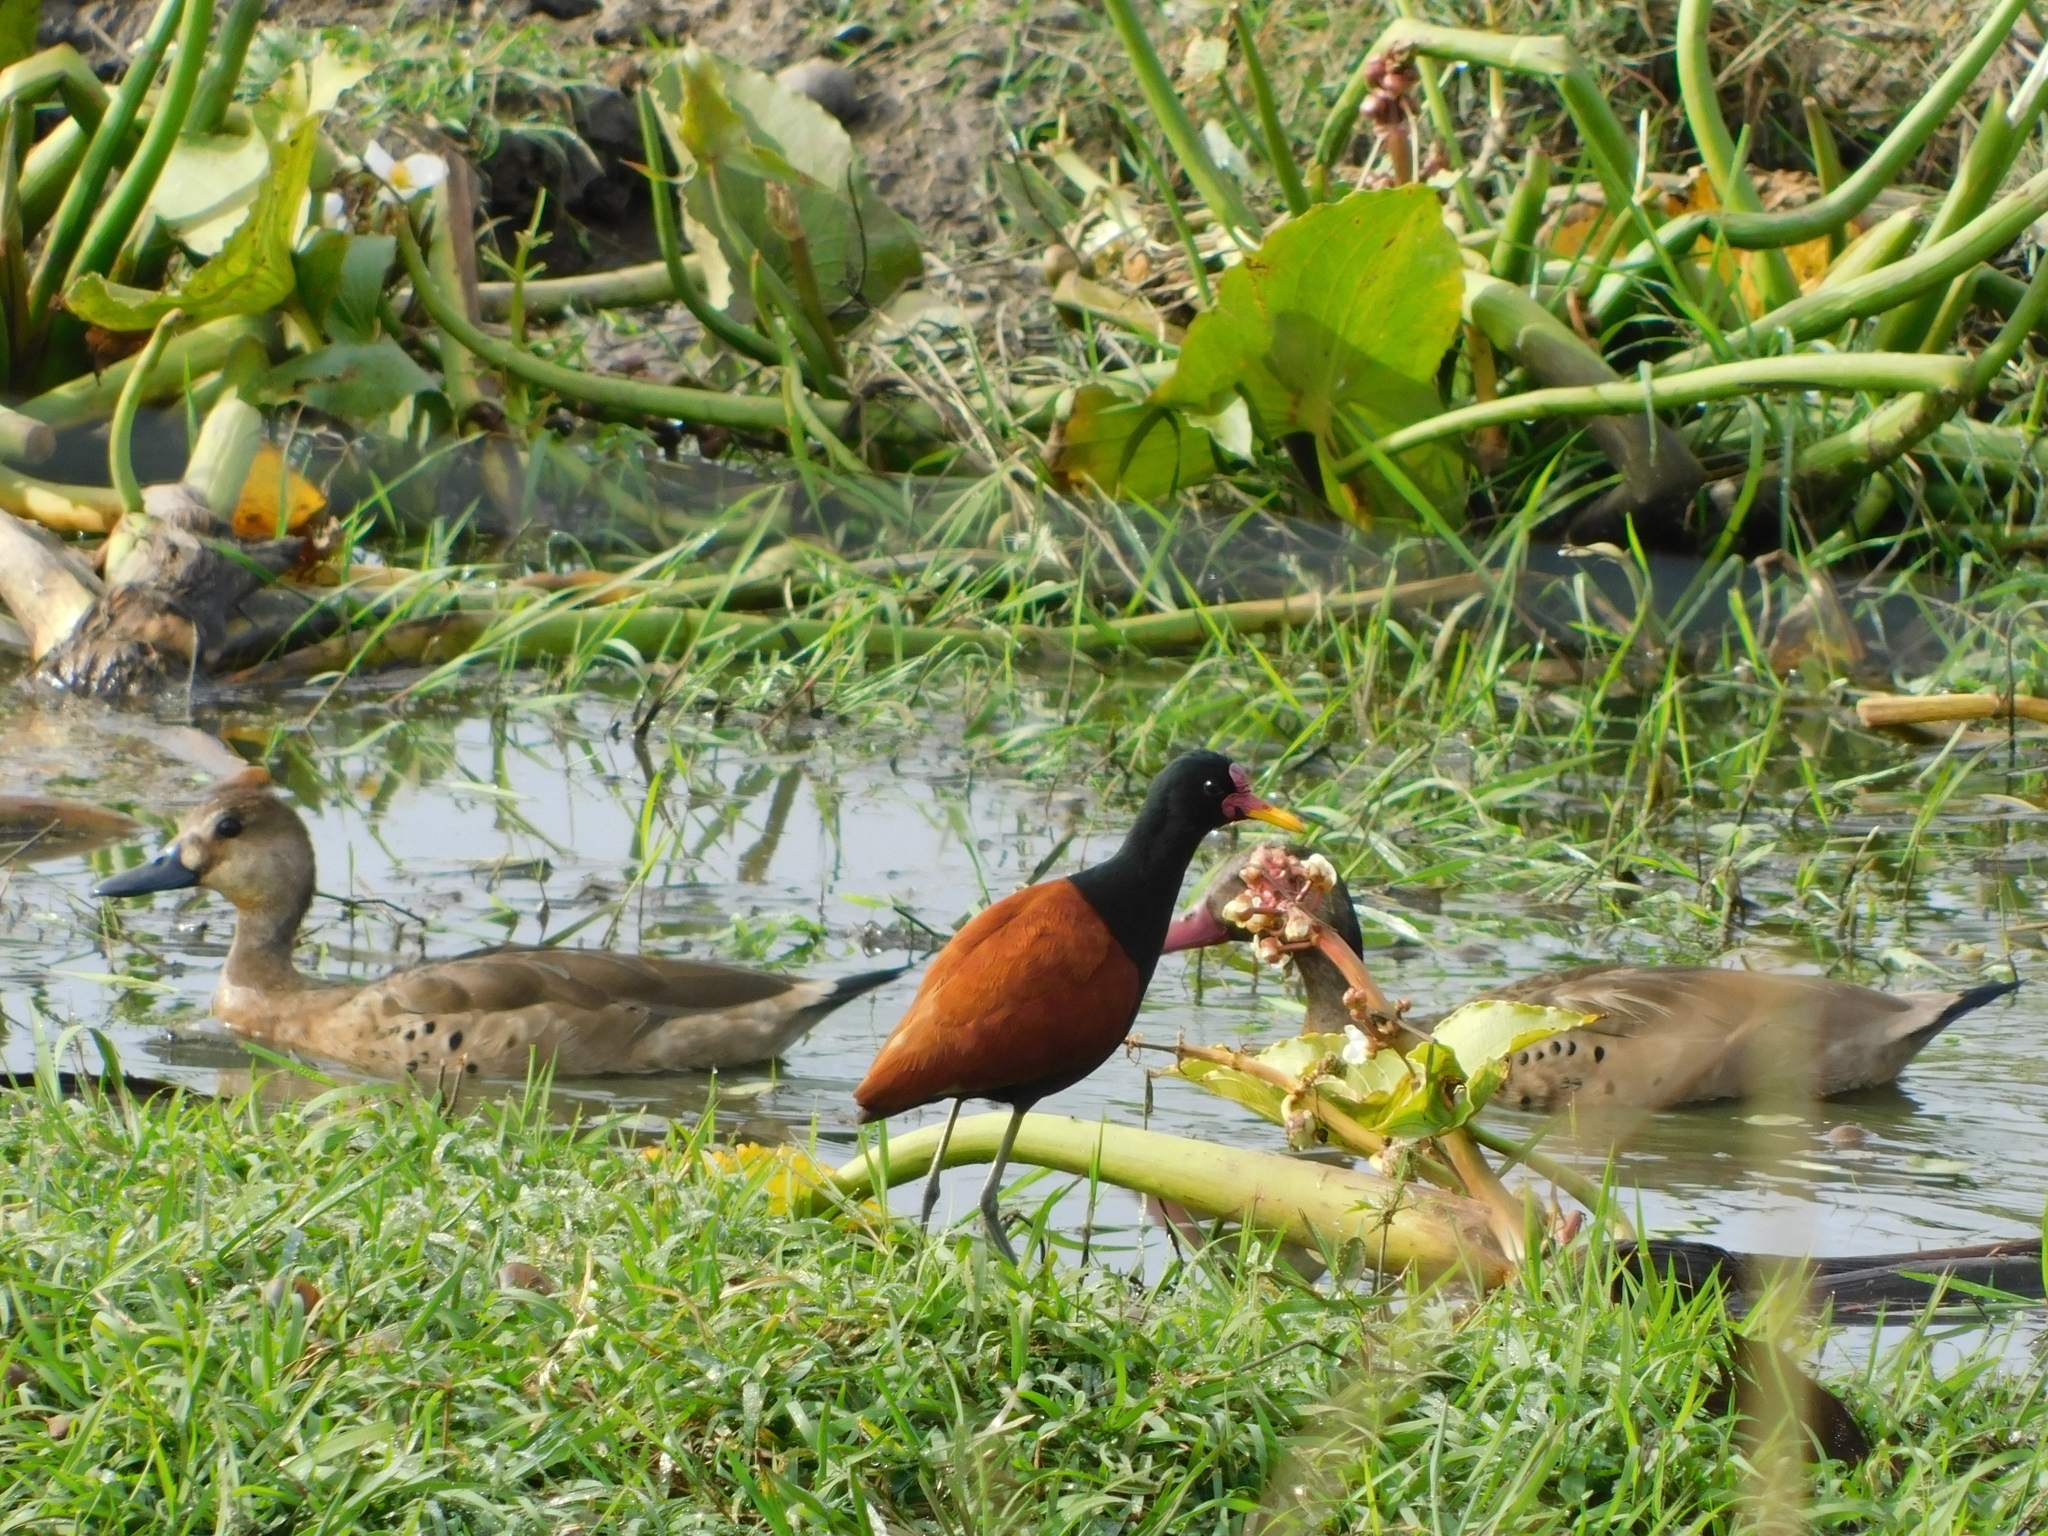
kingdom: Animalia
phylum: Chordata
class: Aves
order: Charadriiformes
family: Jacanidae
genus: Jacana
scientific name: Jacana jacana
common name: Wattled jacana
